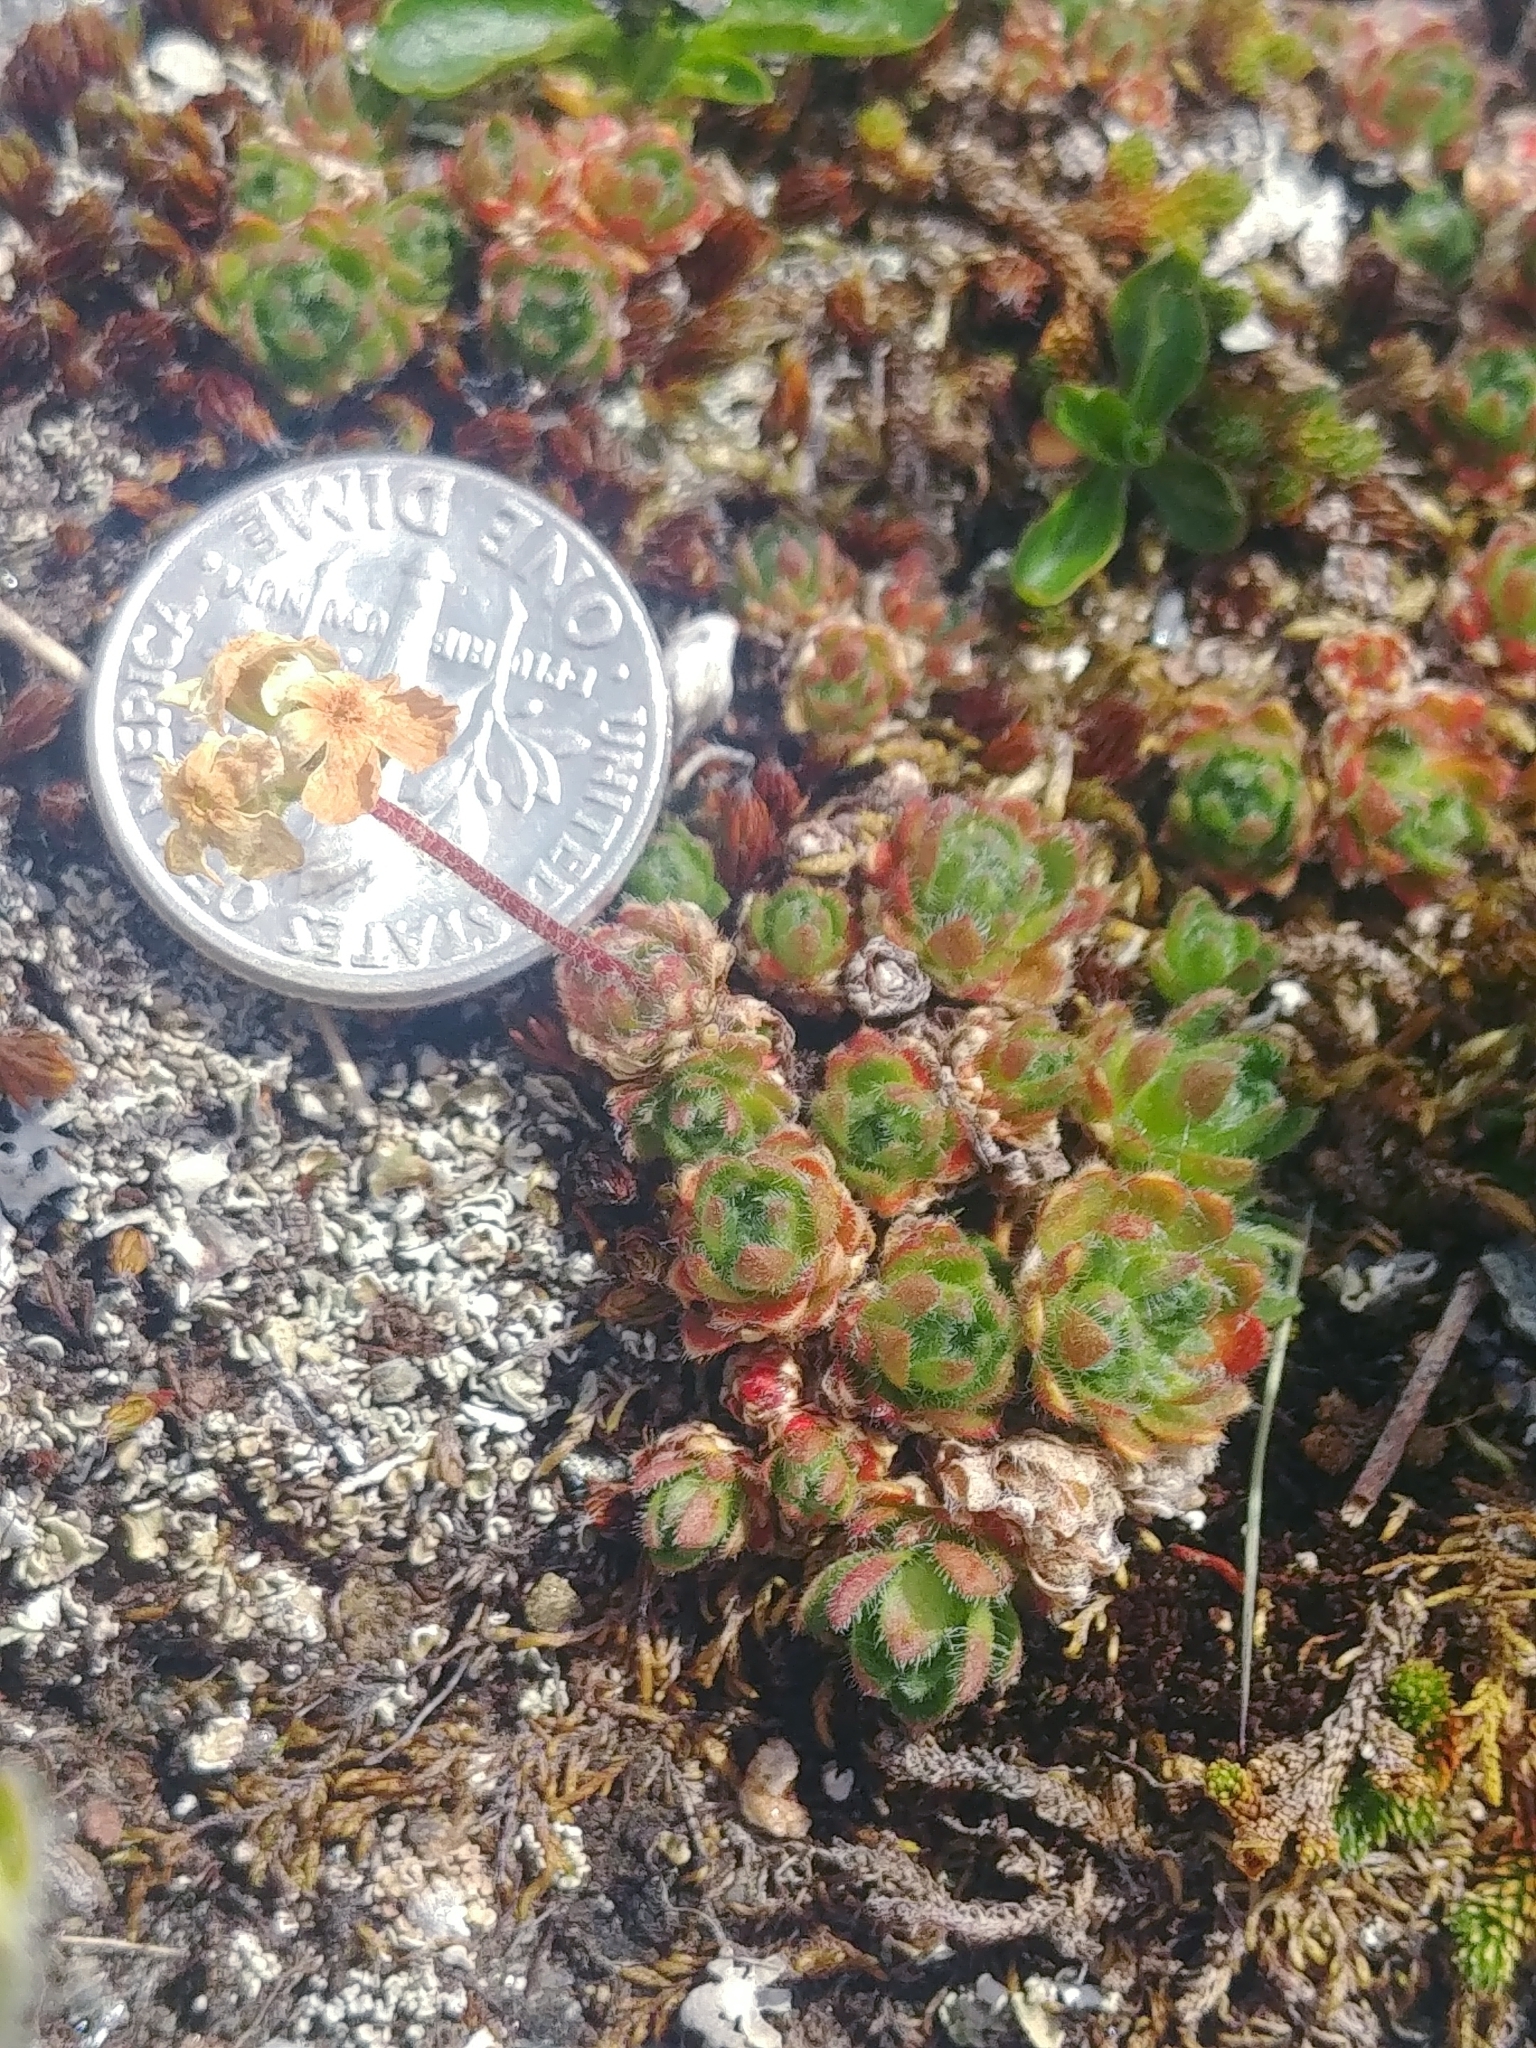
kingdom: Plantae
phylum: Tracheophyta
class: Magnoliopsida
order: Ericales
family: Primulaceae
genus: Androsace
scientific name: Androsace chamaejasme
